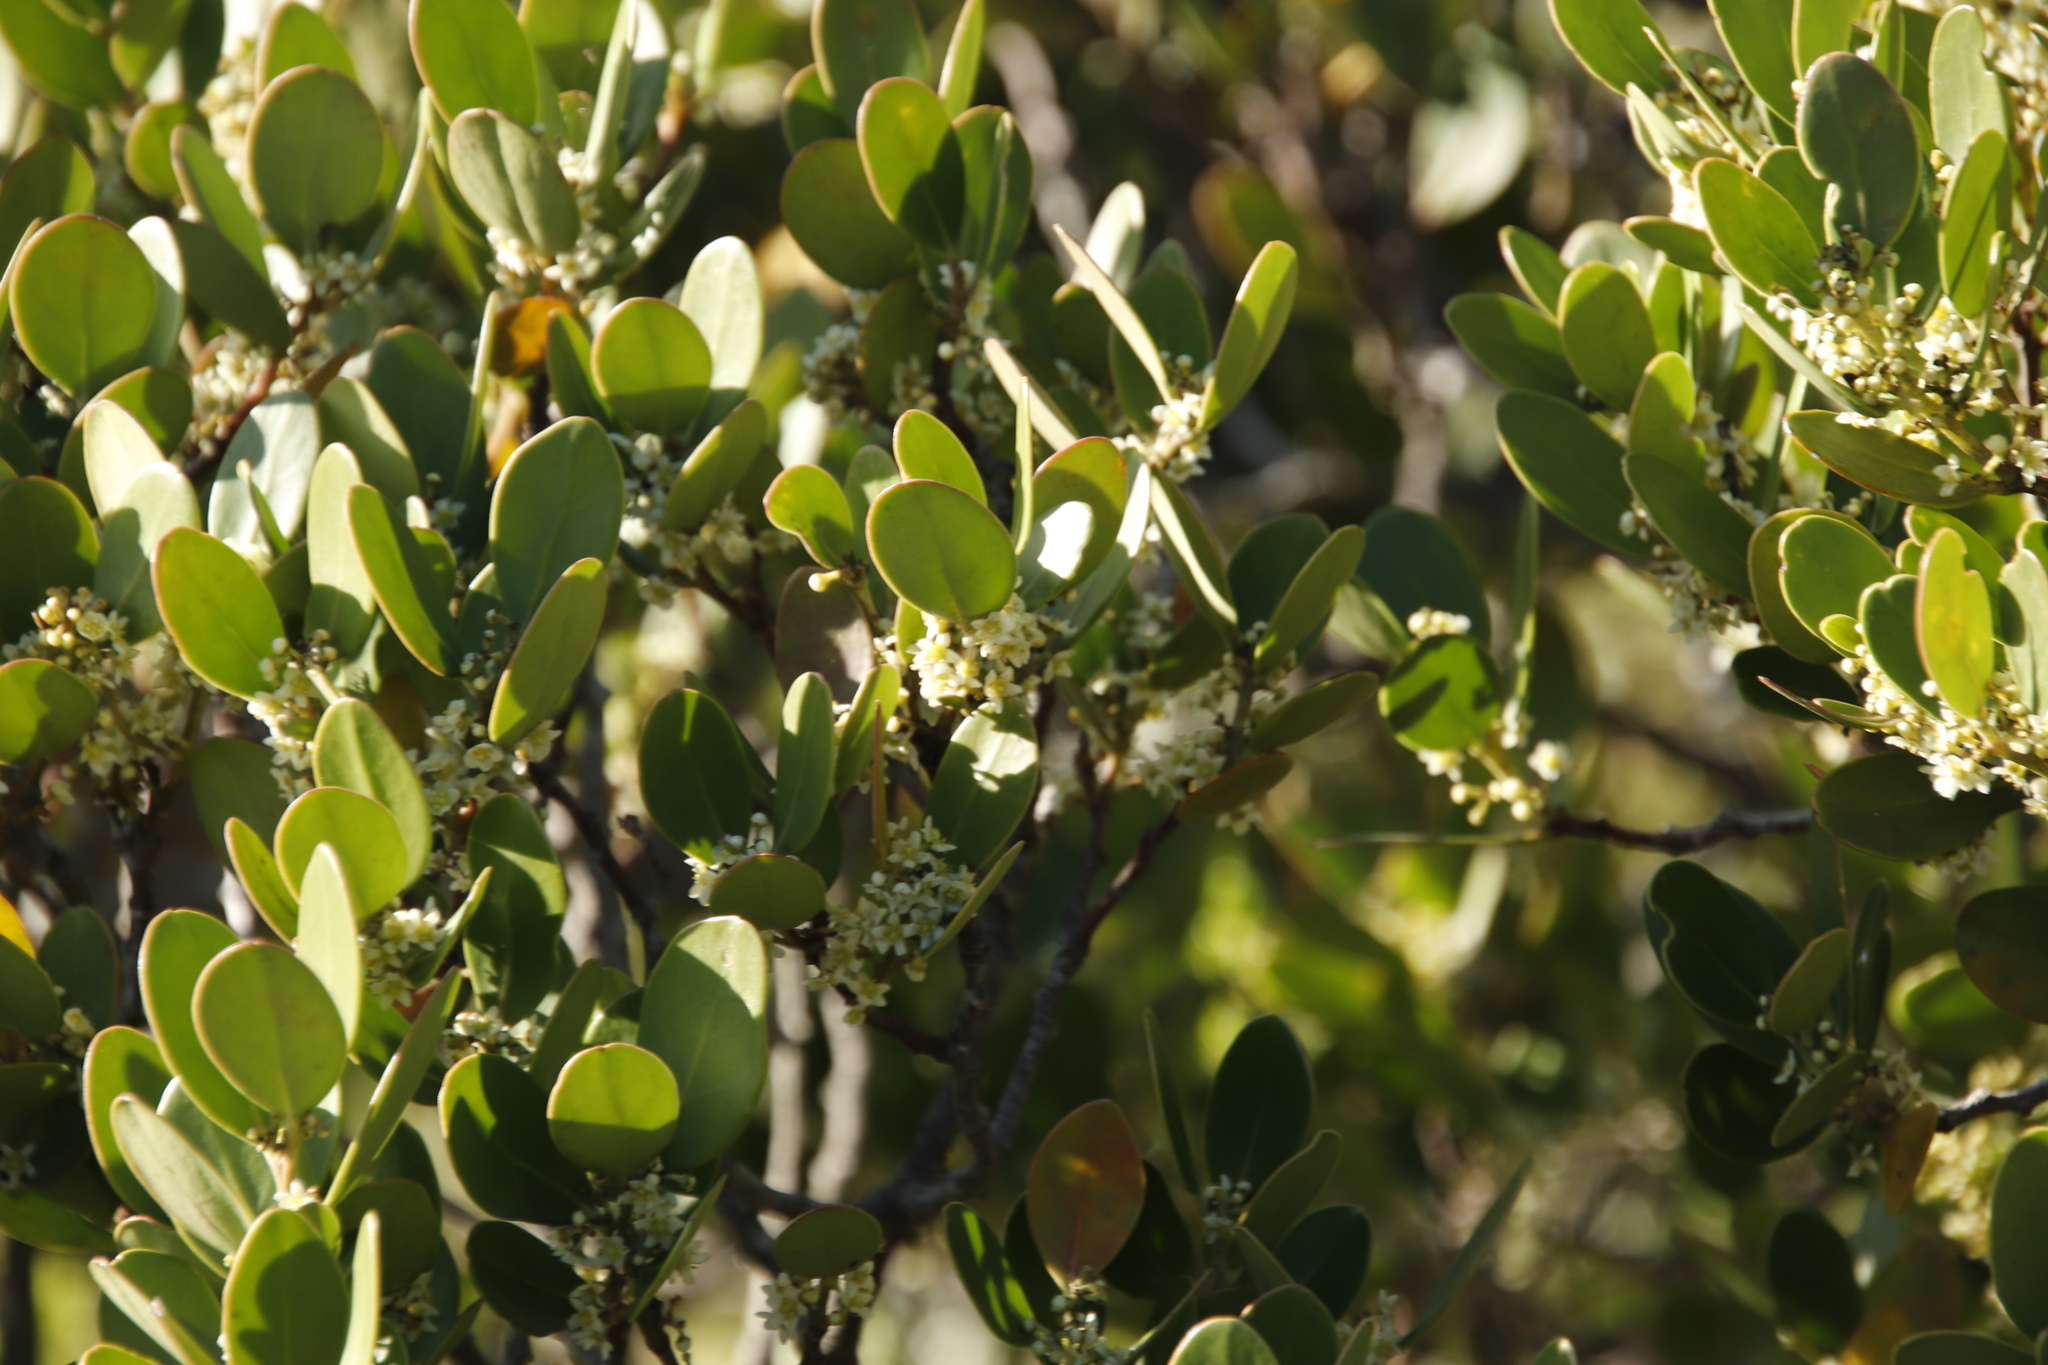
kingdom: Plantae
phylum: Tracheophyta
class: Magnoliopsida
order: Lamiales
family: Oleaceae
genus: Olea
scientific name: Olea capensis
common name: Black ironwood
